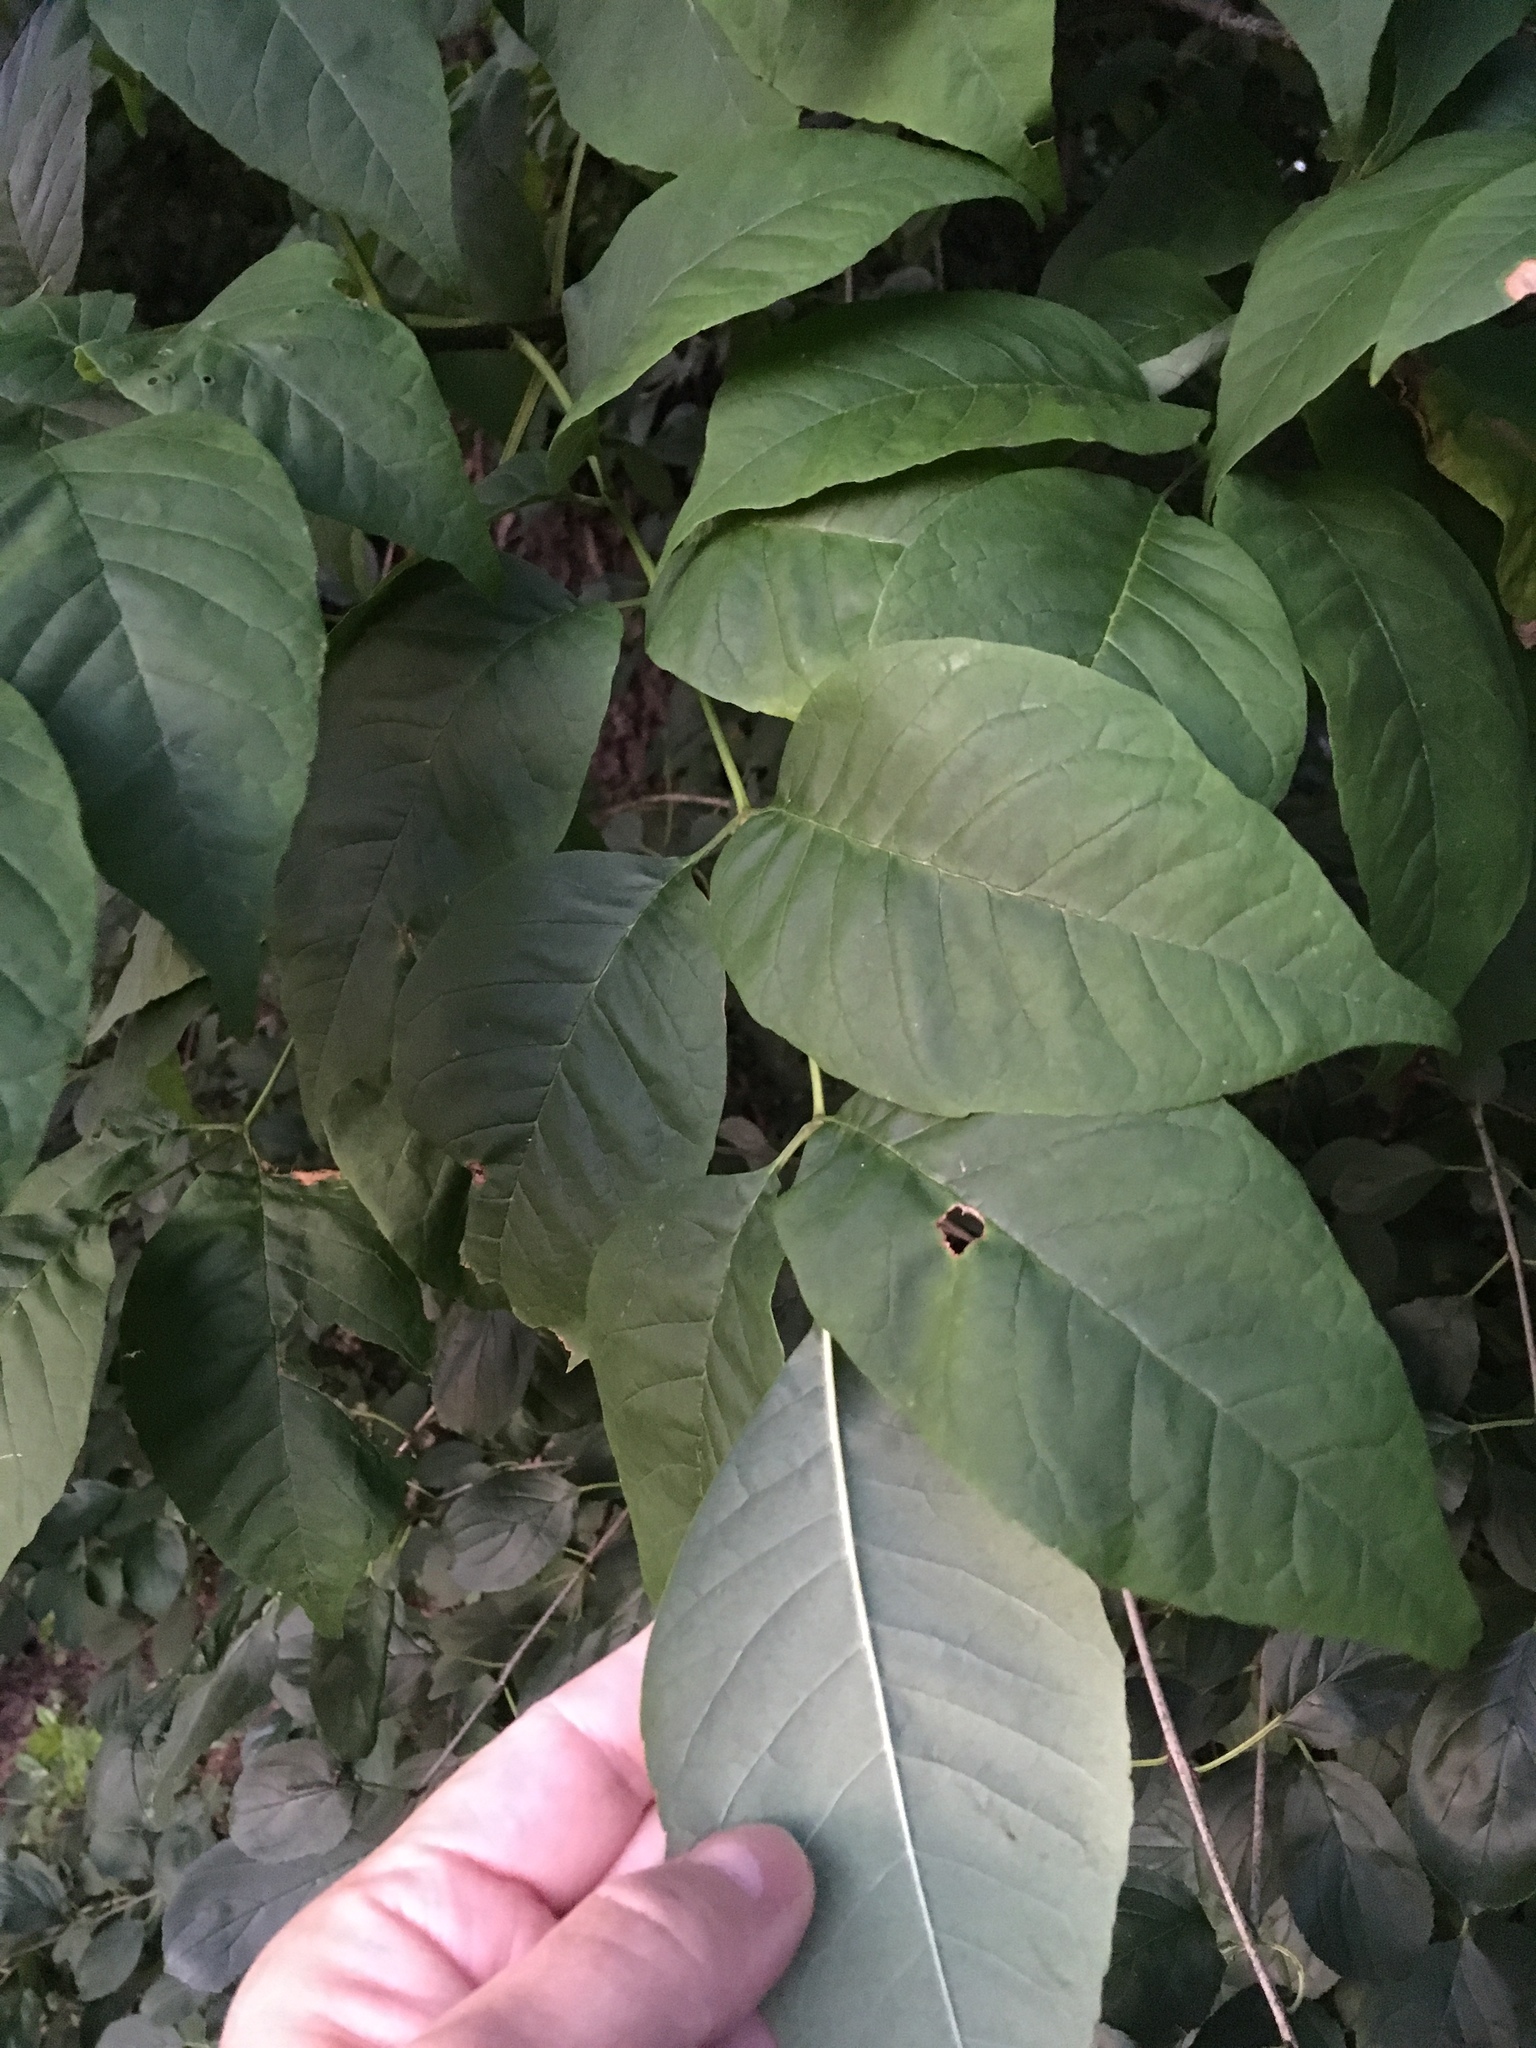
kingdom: Plantae
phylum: Tracheophyta
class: Magnoliopsida
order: Lamiales
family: Oleaceae
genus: Fraxinus
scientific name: Fraxinus americana
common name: White ash
